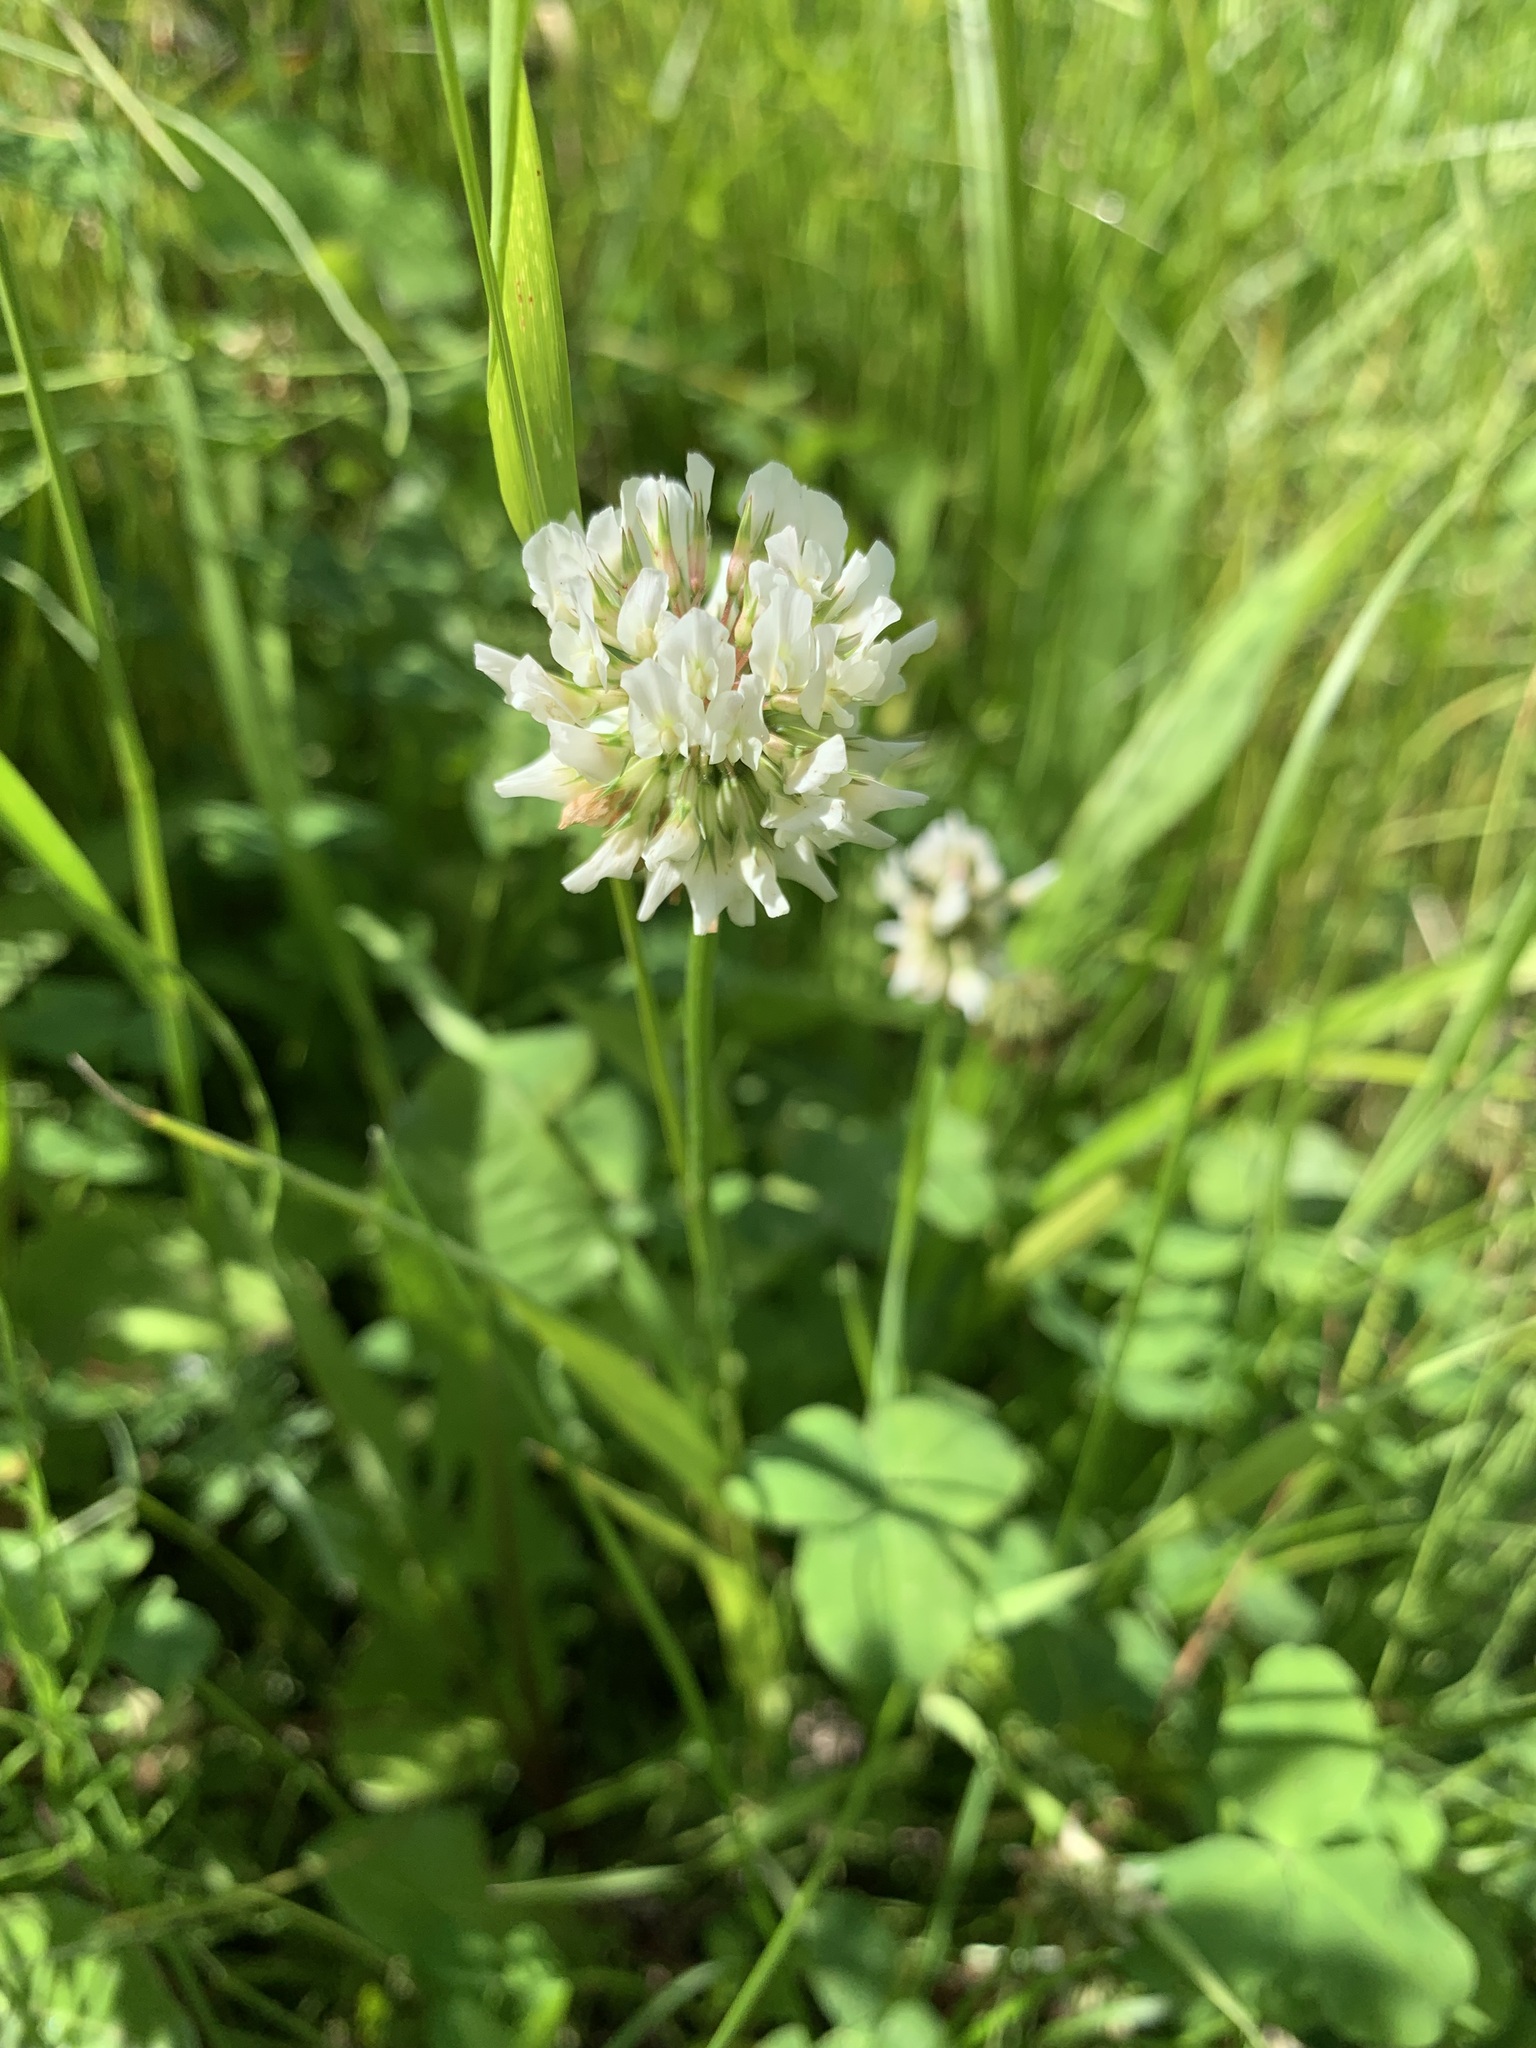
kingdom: Plantae
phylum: Tracheophyta
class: Magnoliopsida
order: Fabales
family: Fabaceae
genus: Trifolium
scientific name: Trifolium repens
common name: White clover
